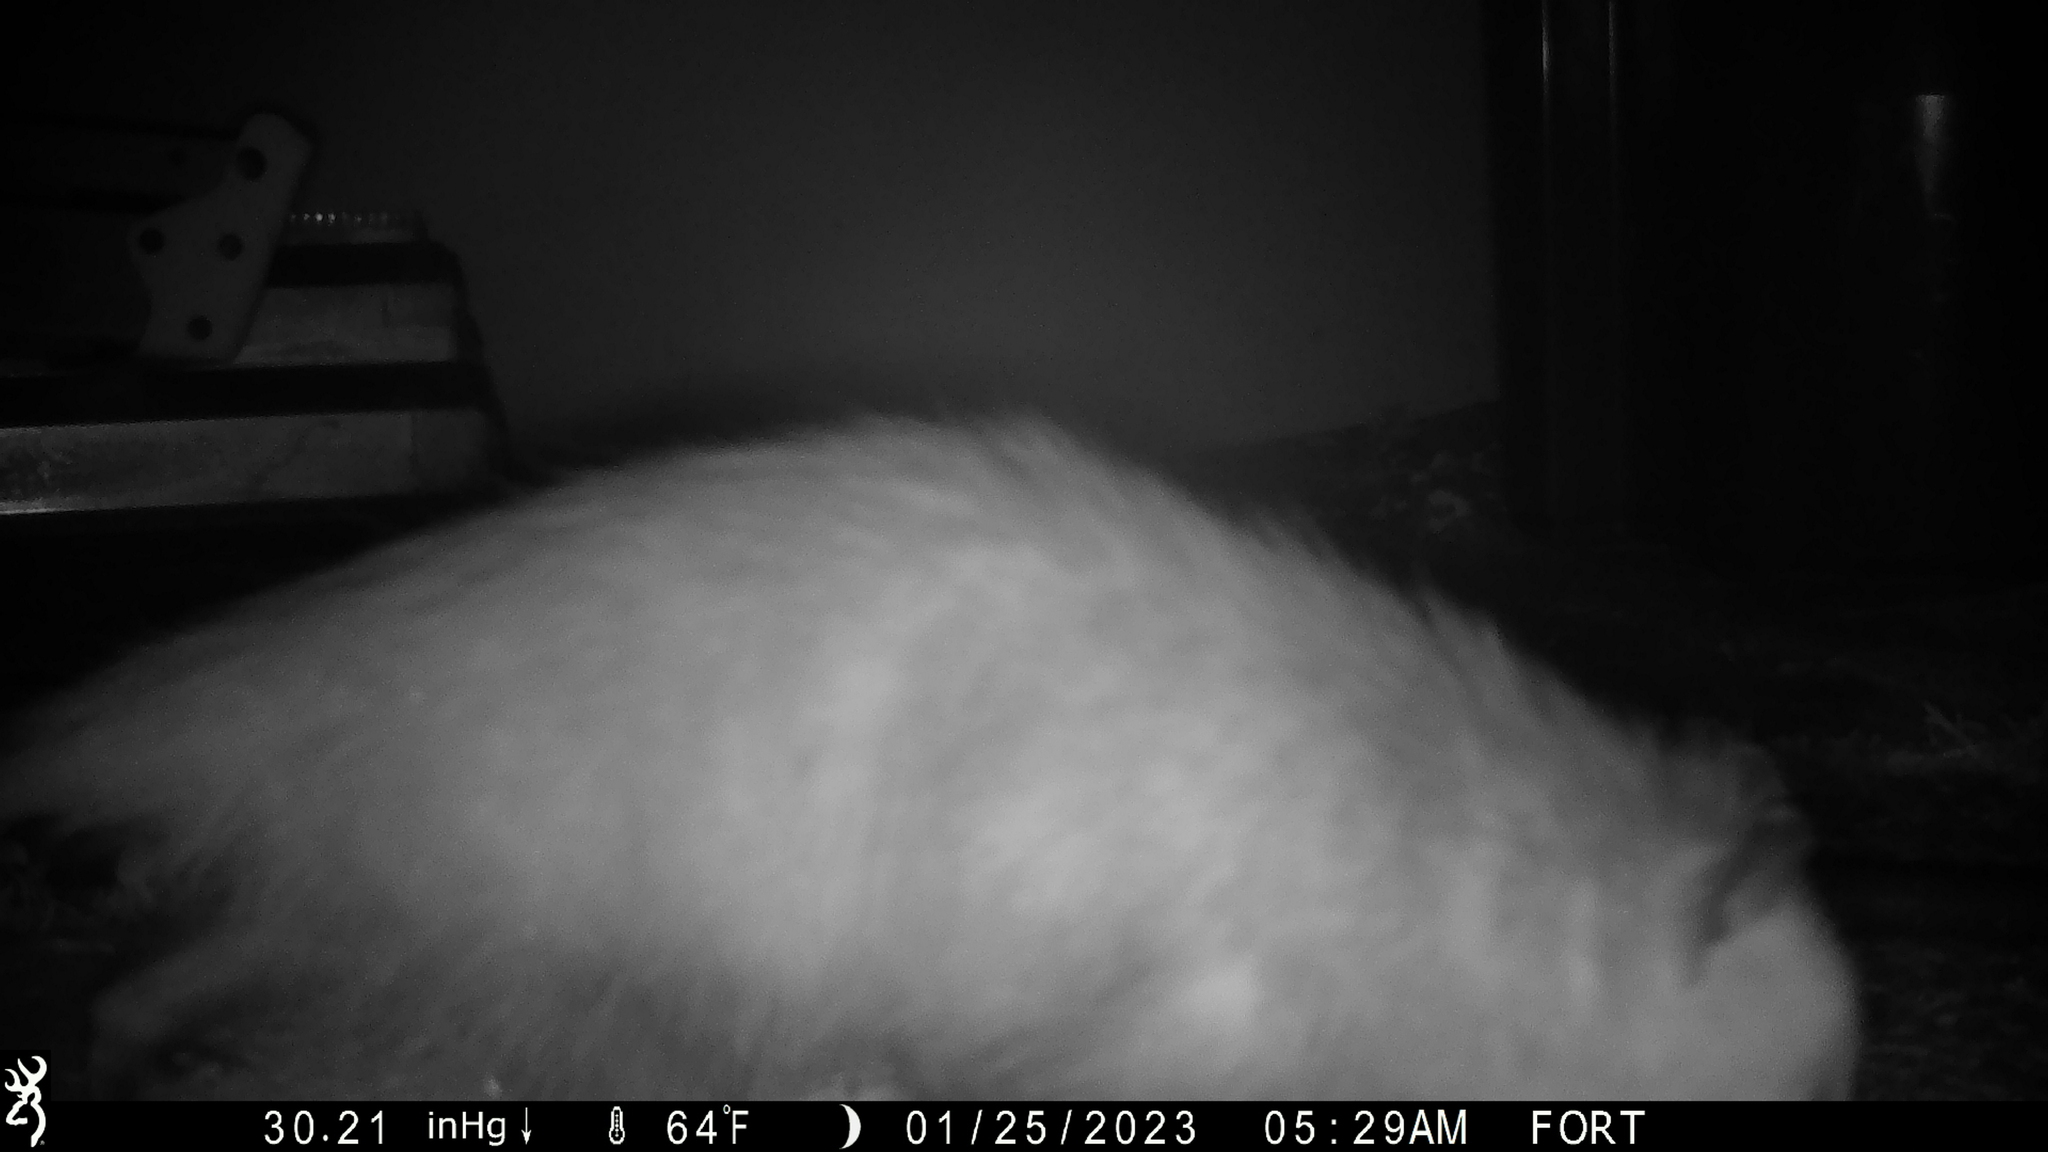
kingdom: Animalia
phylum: Chordata
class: Mammalia
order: Didelphimorphia
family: Didelphidae
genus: Didelphis
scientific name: Didelphis virginiana
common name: Virginia opossum
